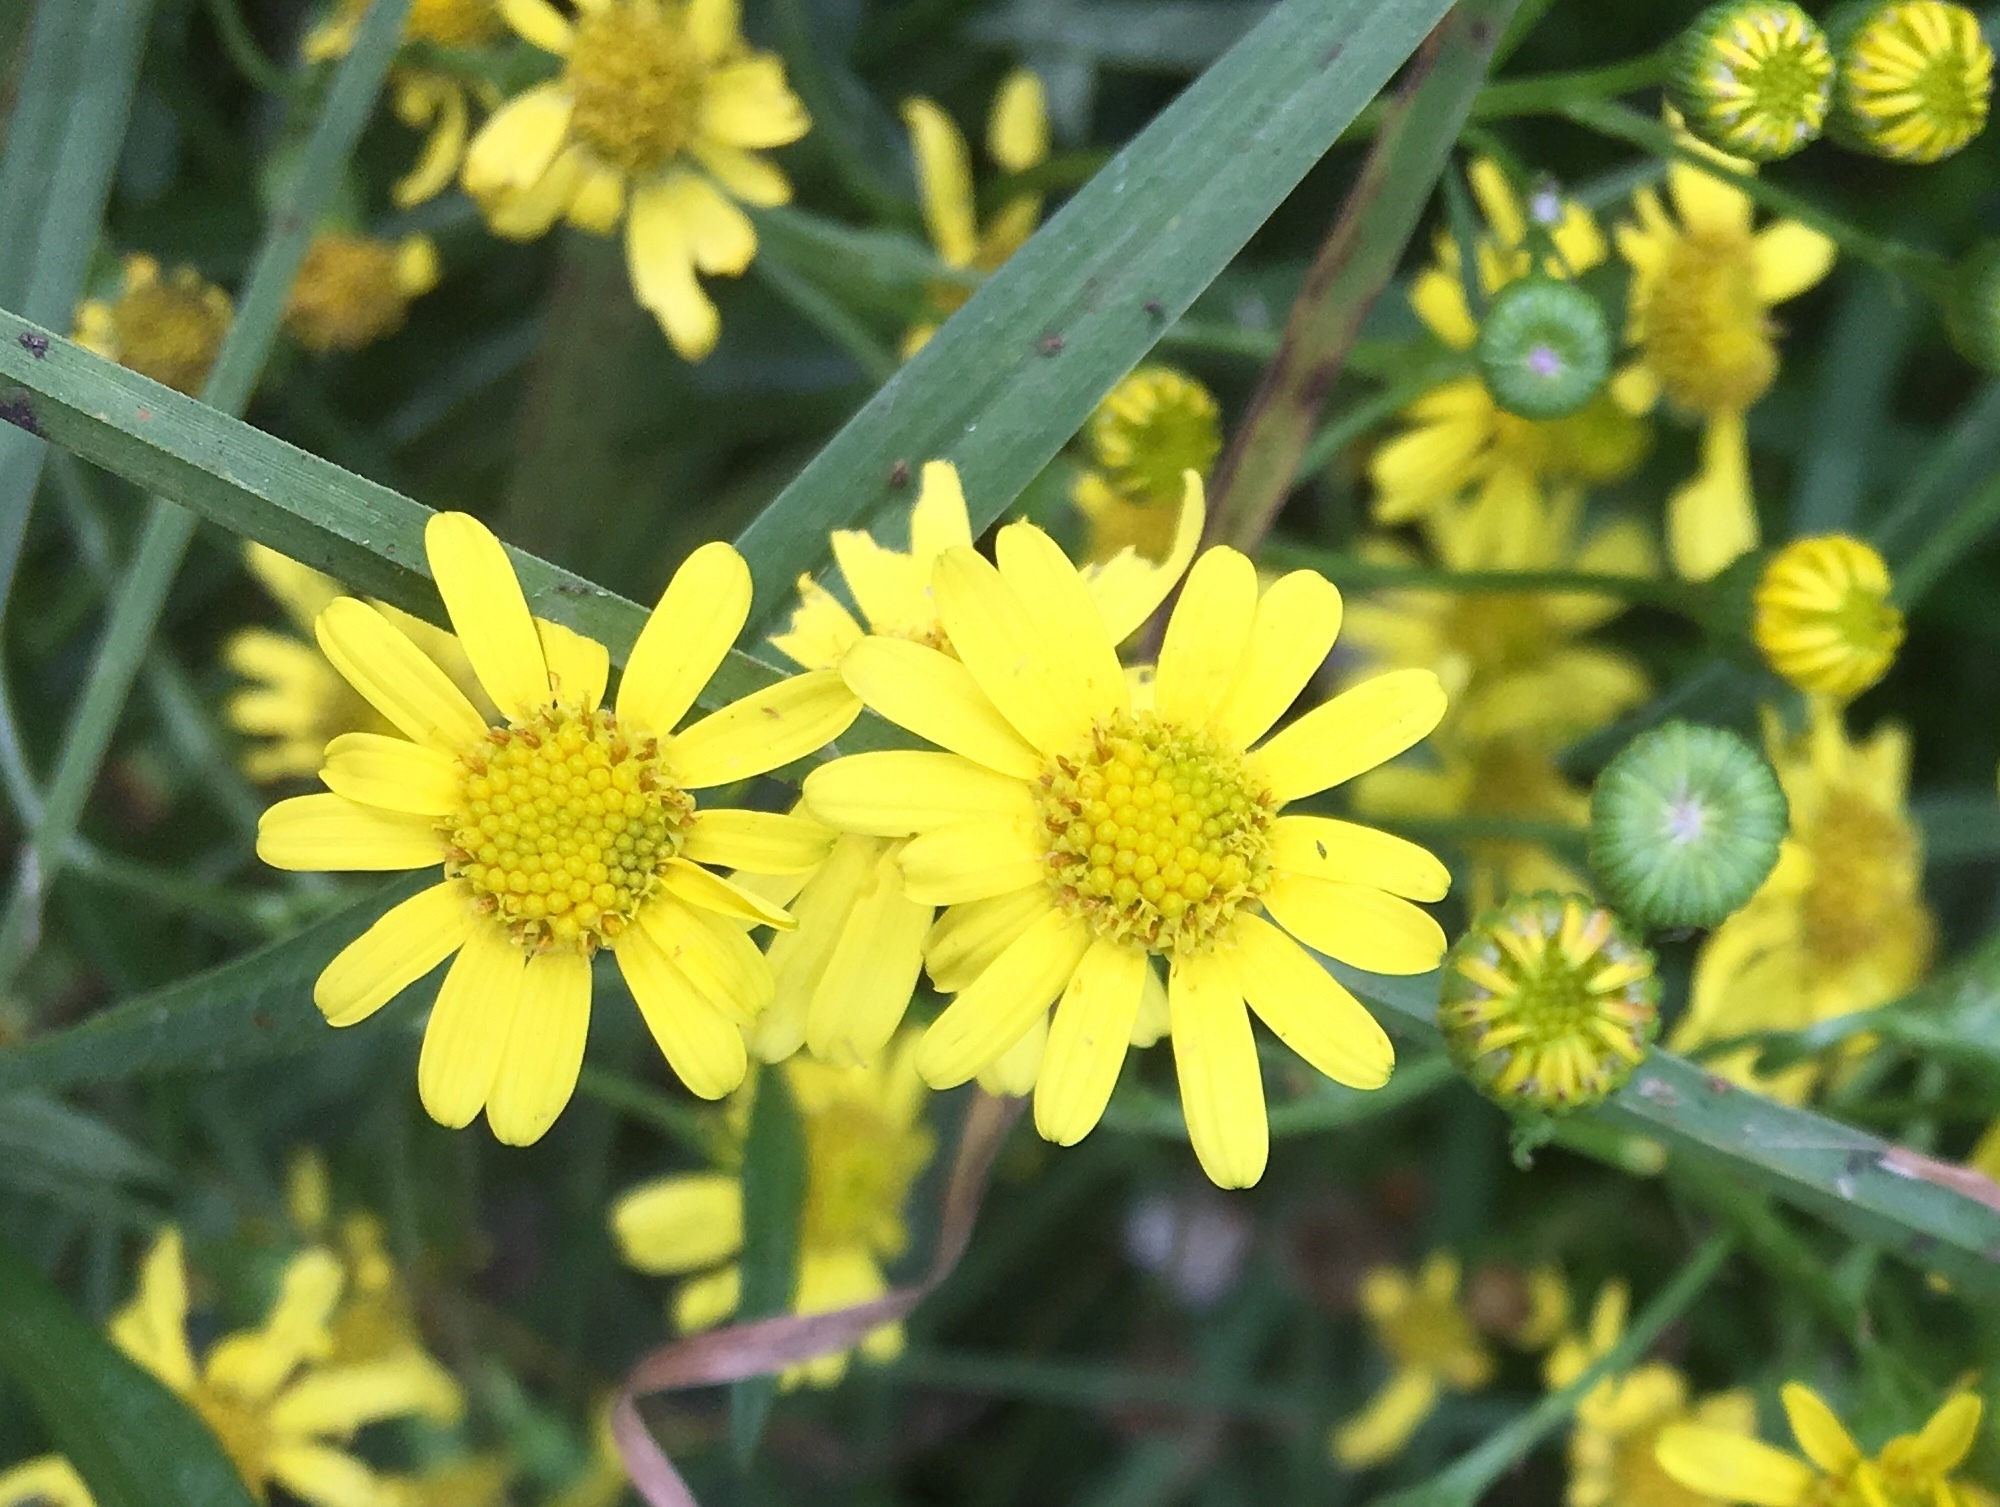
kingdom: Plantae
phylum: Tracheophyta
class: Magnoliopsida
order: Asterales
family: Asteraceae
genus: Senecio
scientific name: Senecio madagascariensis
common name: Madagascar ragwort
